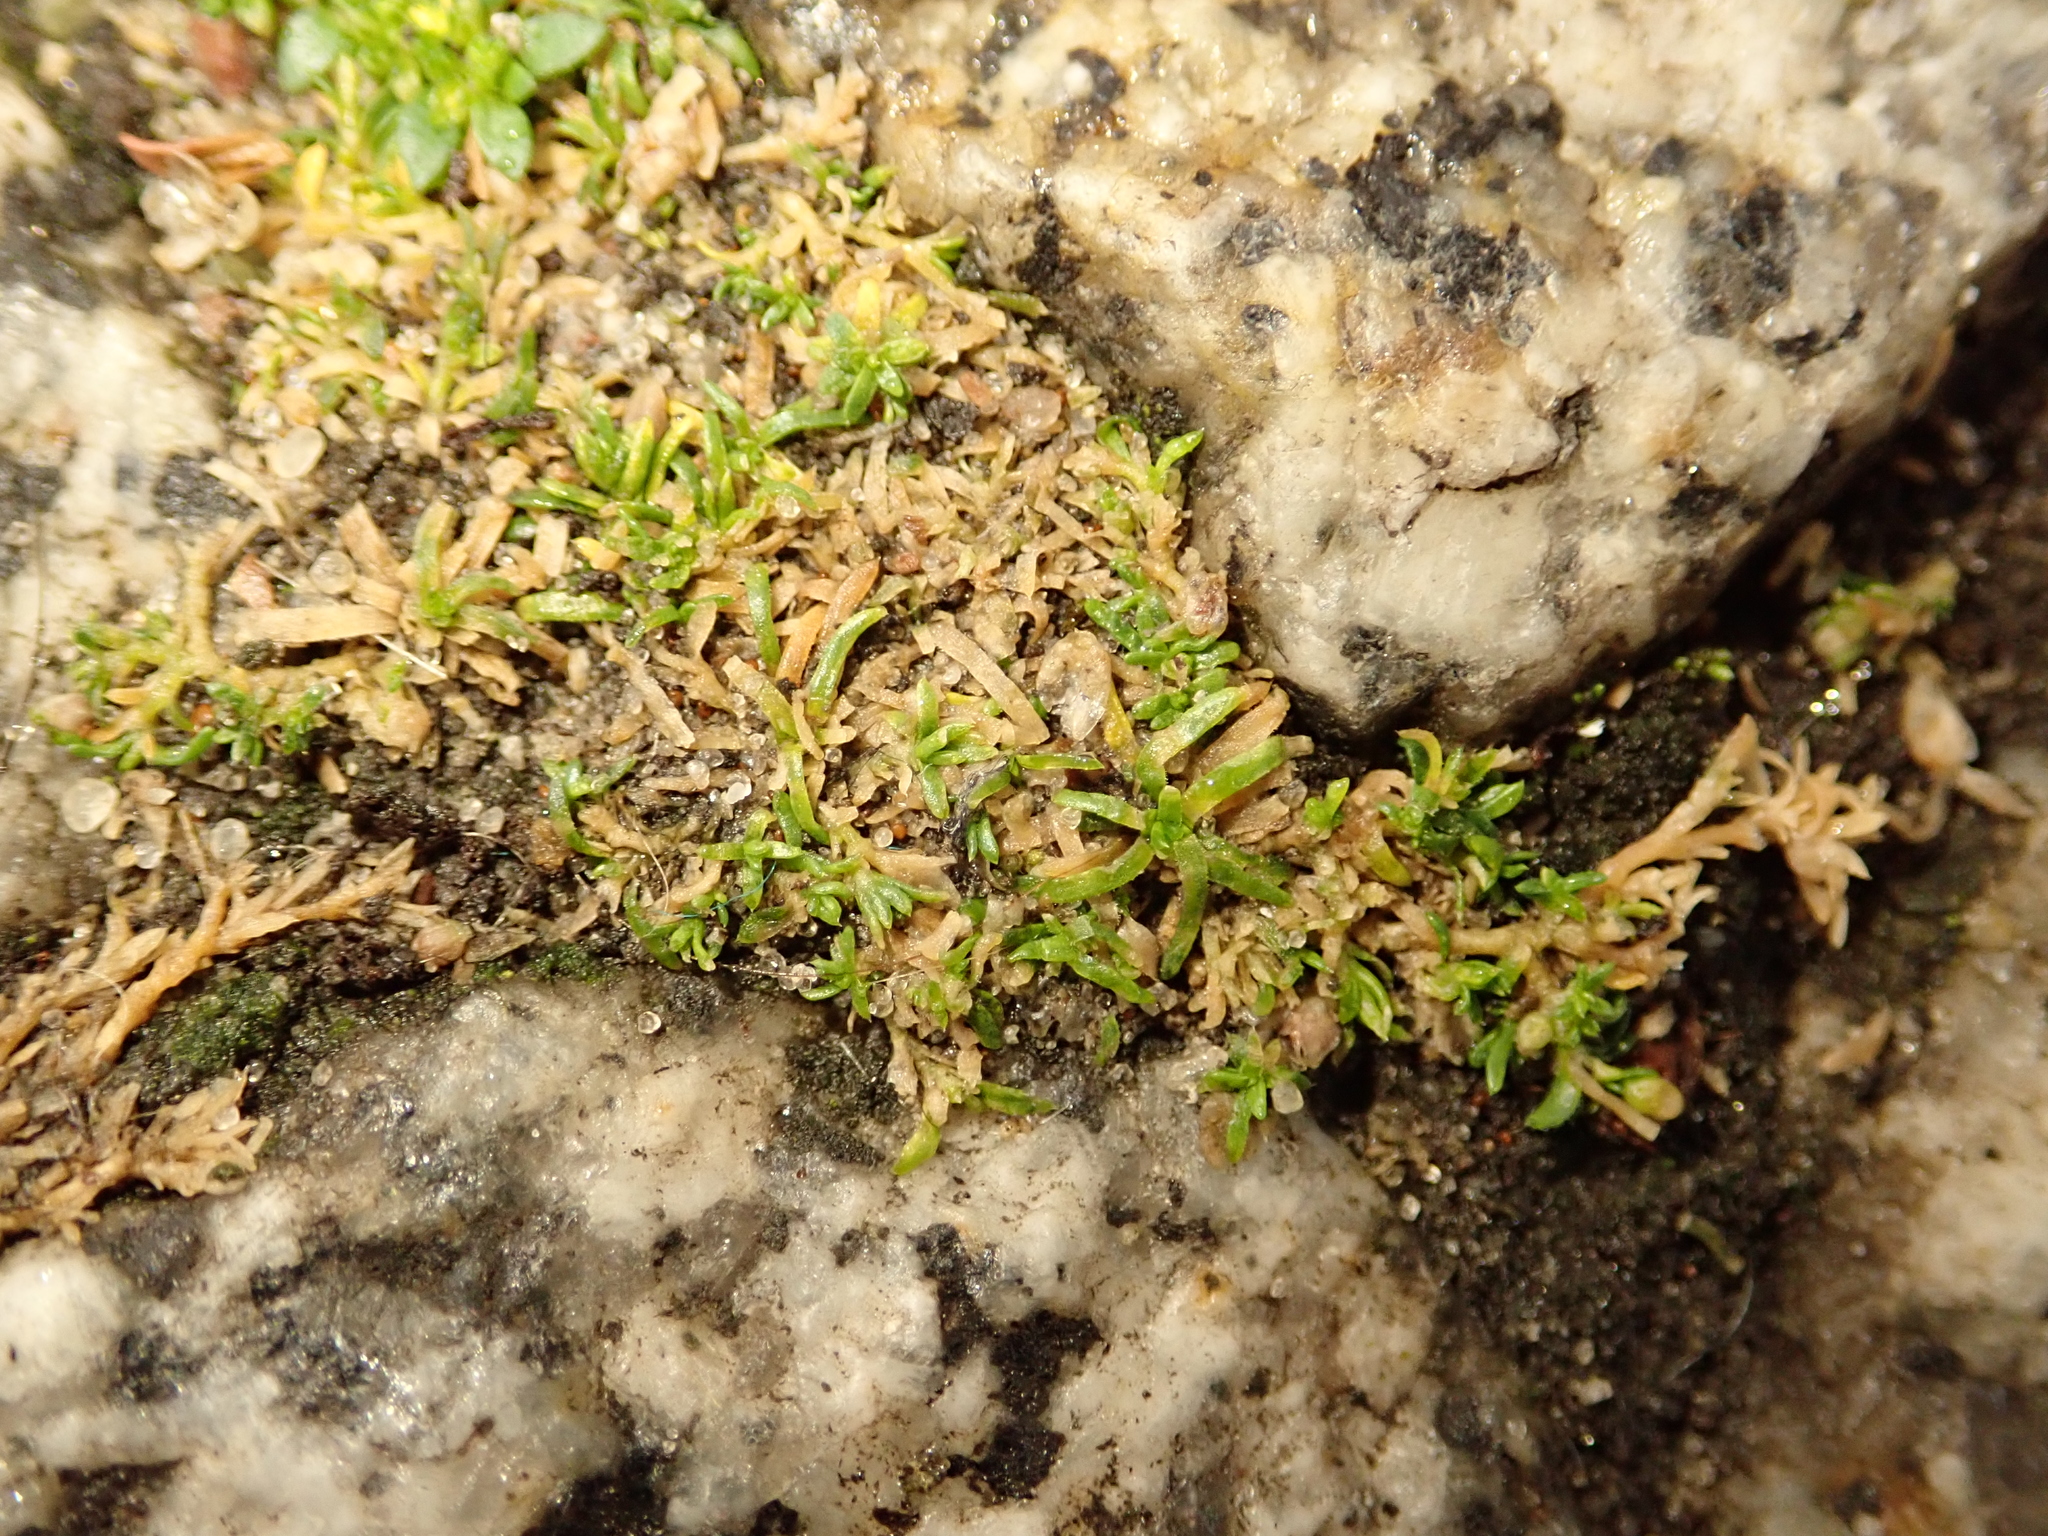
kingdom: Plantae
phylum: Tracheophyta
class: Magnoliopsida
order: Caryophyllales
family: Caryophyllaceae
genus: Sagina
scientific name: Sagina procumbens
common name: Procumbent pearlwort
